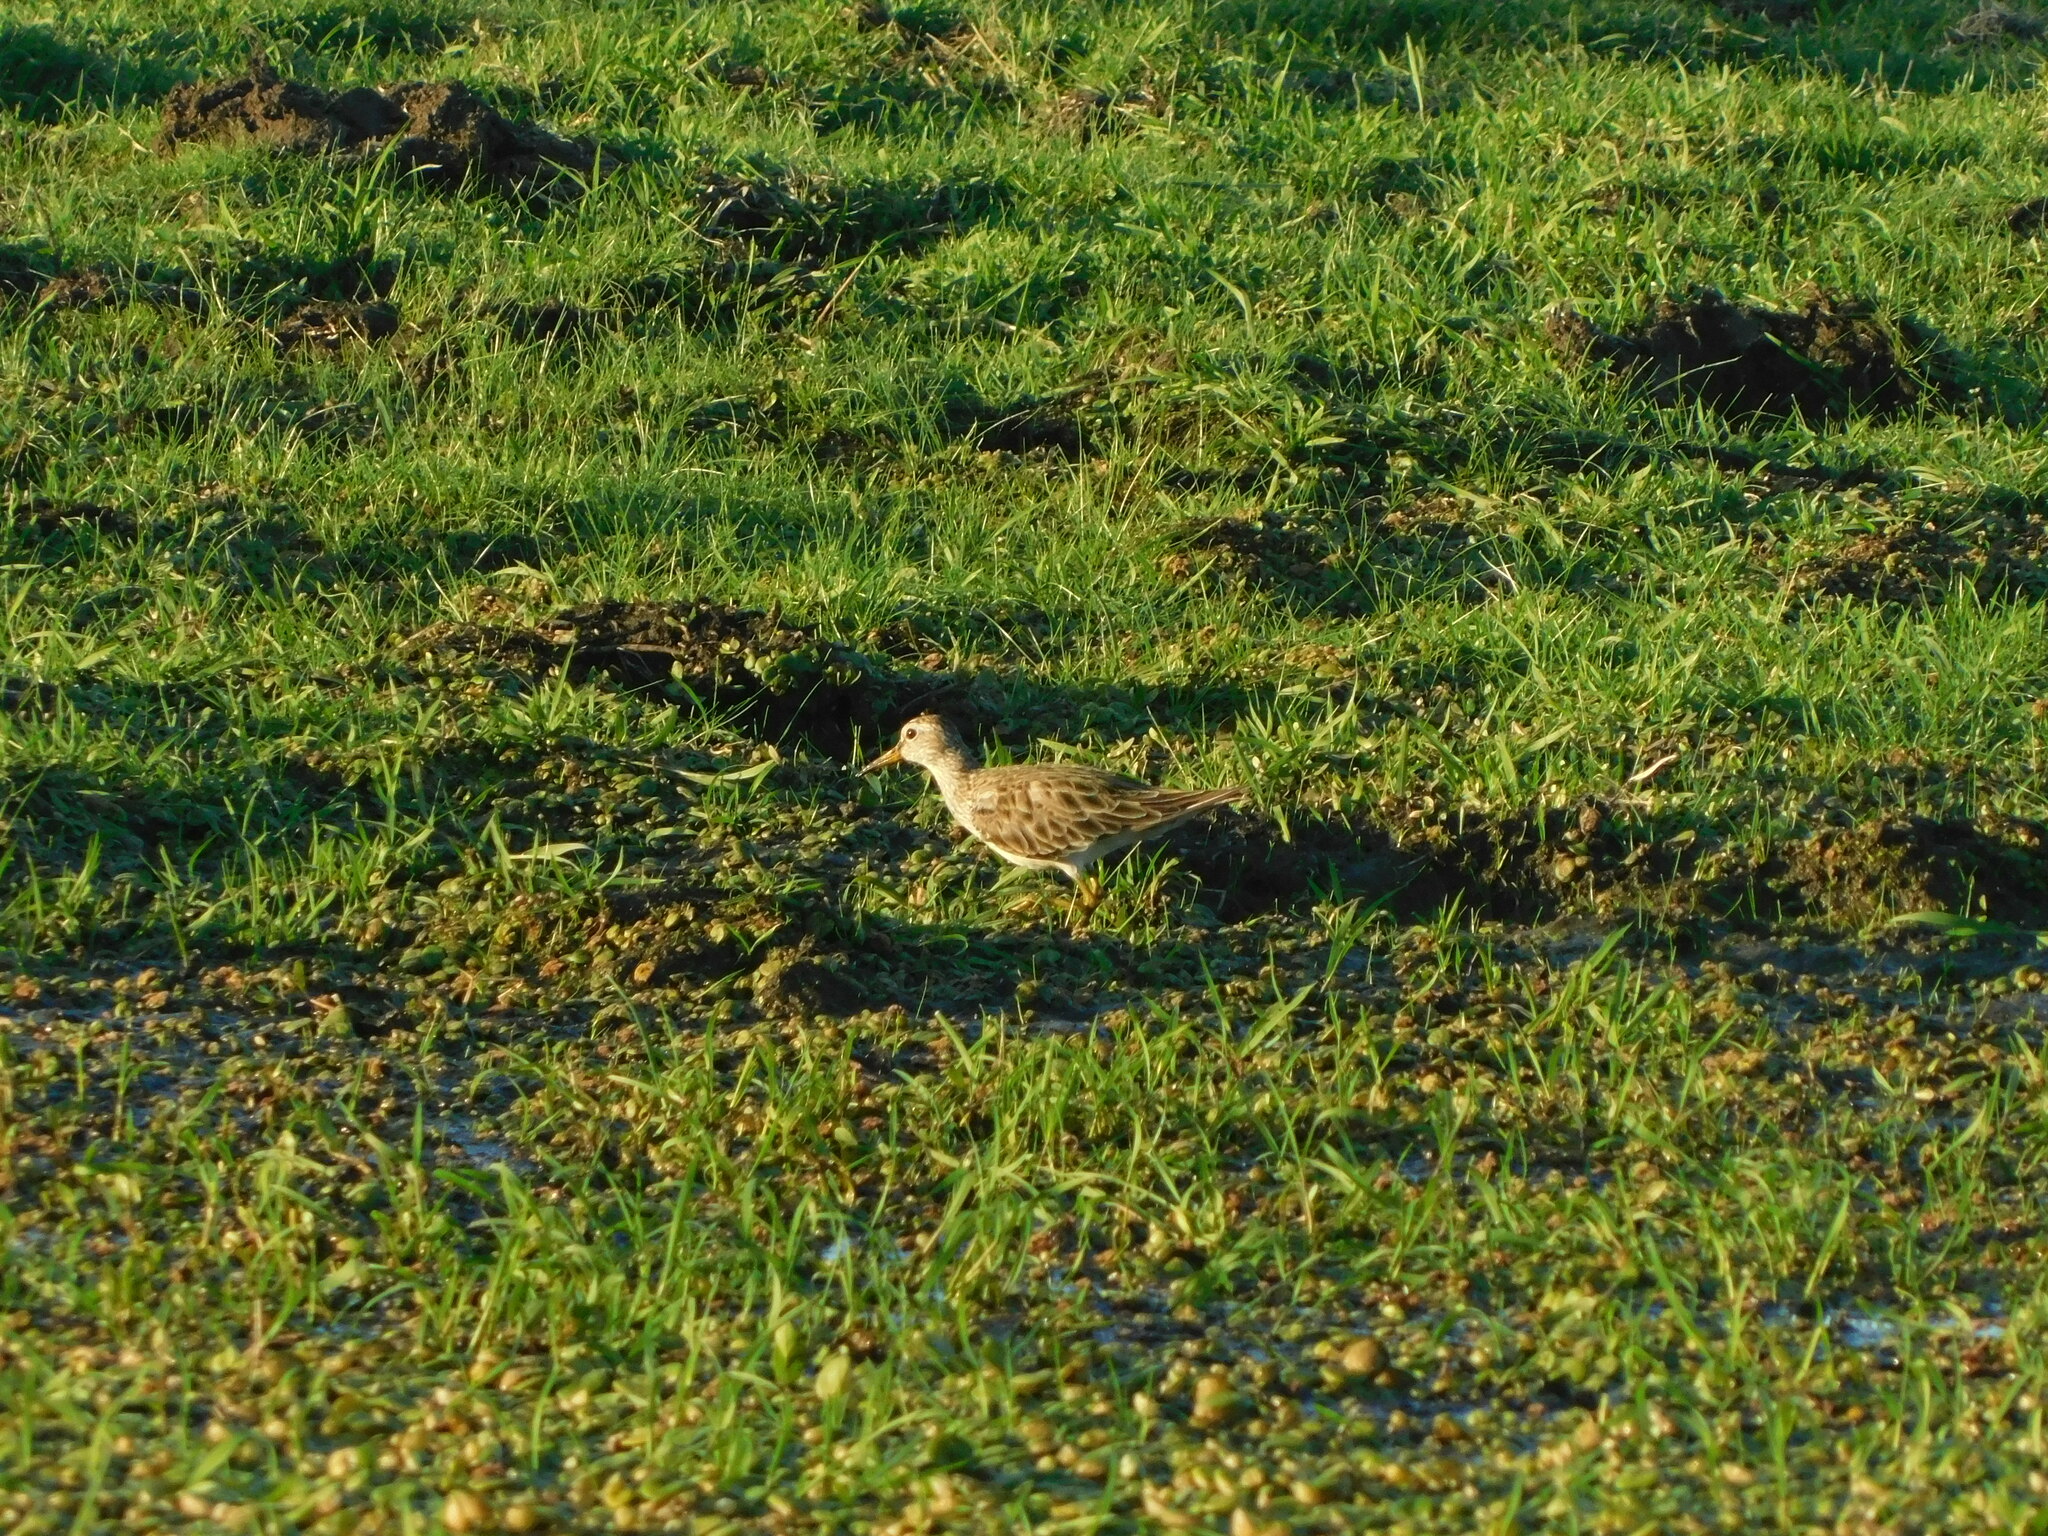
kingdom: Animalia
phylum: Chordata
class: Aves
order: Charadriiformes
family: Scolopacidae
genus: Calidris
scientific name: Calidris melanotos
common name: Pectoral sandpiper
